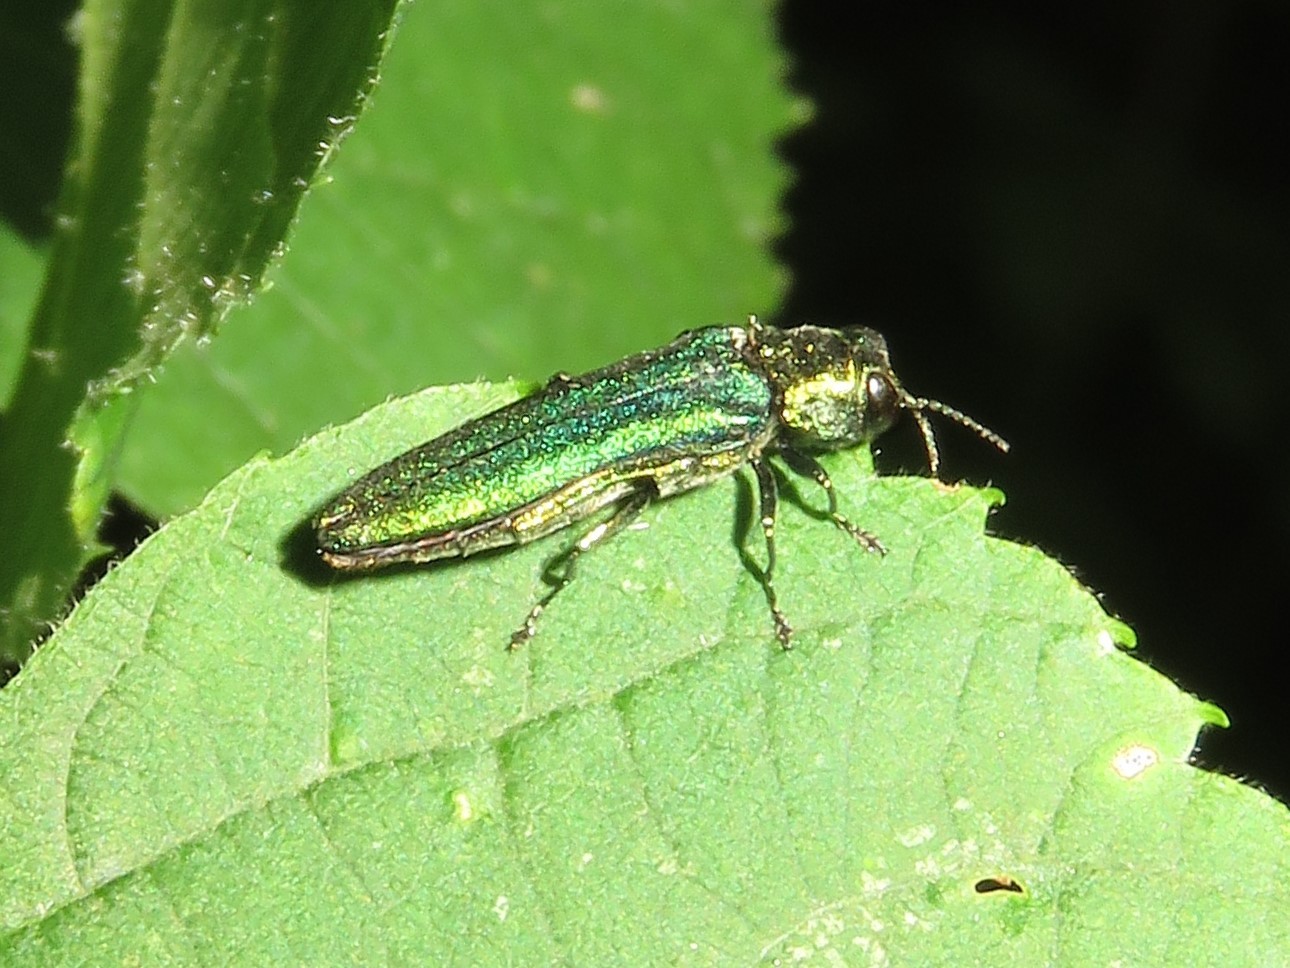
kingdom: Animalia
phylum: Arthropoda
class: Insecta
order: Coleoptera
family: Buprestidae
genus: Agrilus
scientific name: Agrilus planipennis
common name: Emerald ash borer
